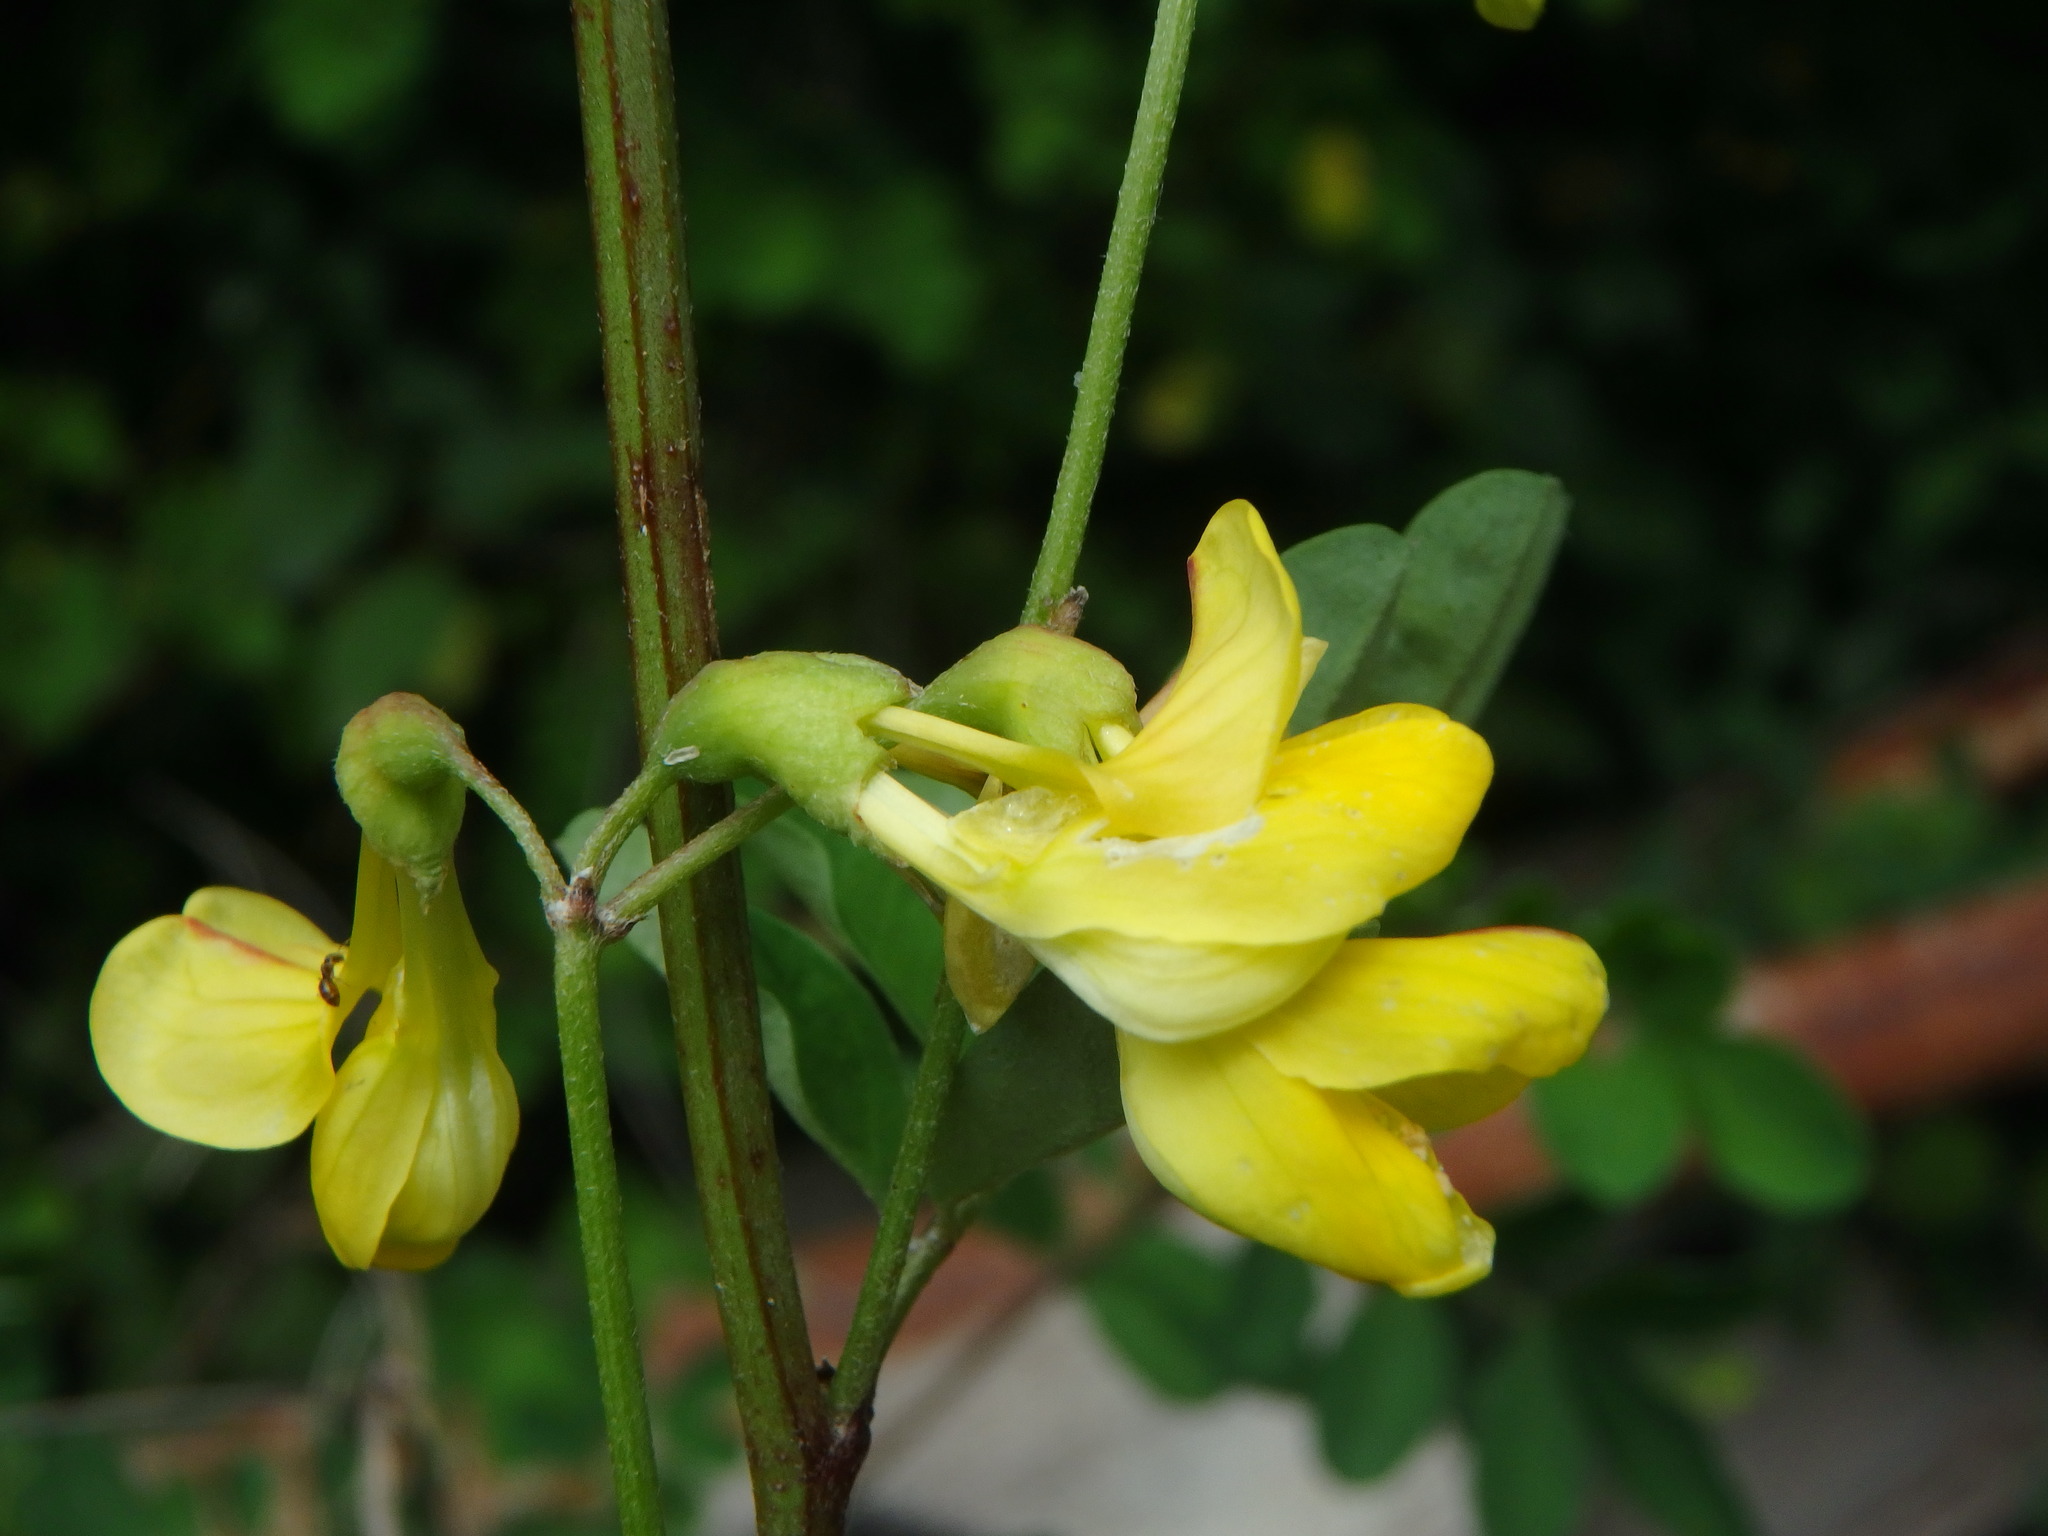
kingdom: Plantae
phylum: Tracheophyta
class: Magnoliopsida
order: Fabales
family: Fabaceae
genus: Hippocrepis
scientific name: Hippocrepis emerus
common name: Scorpion senna
